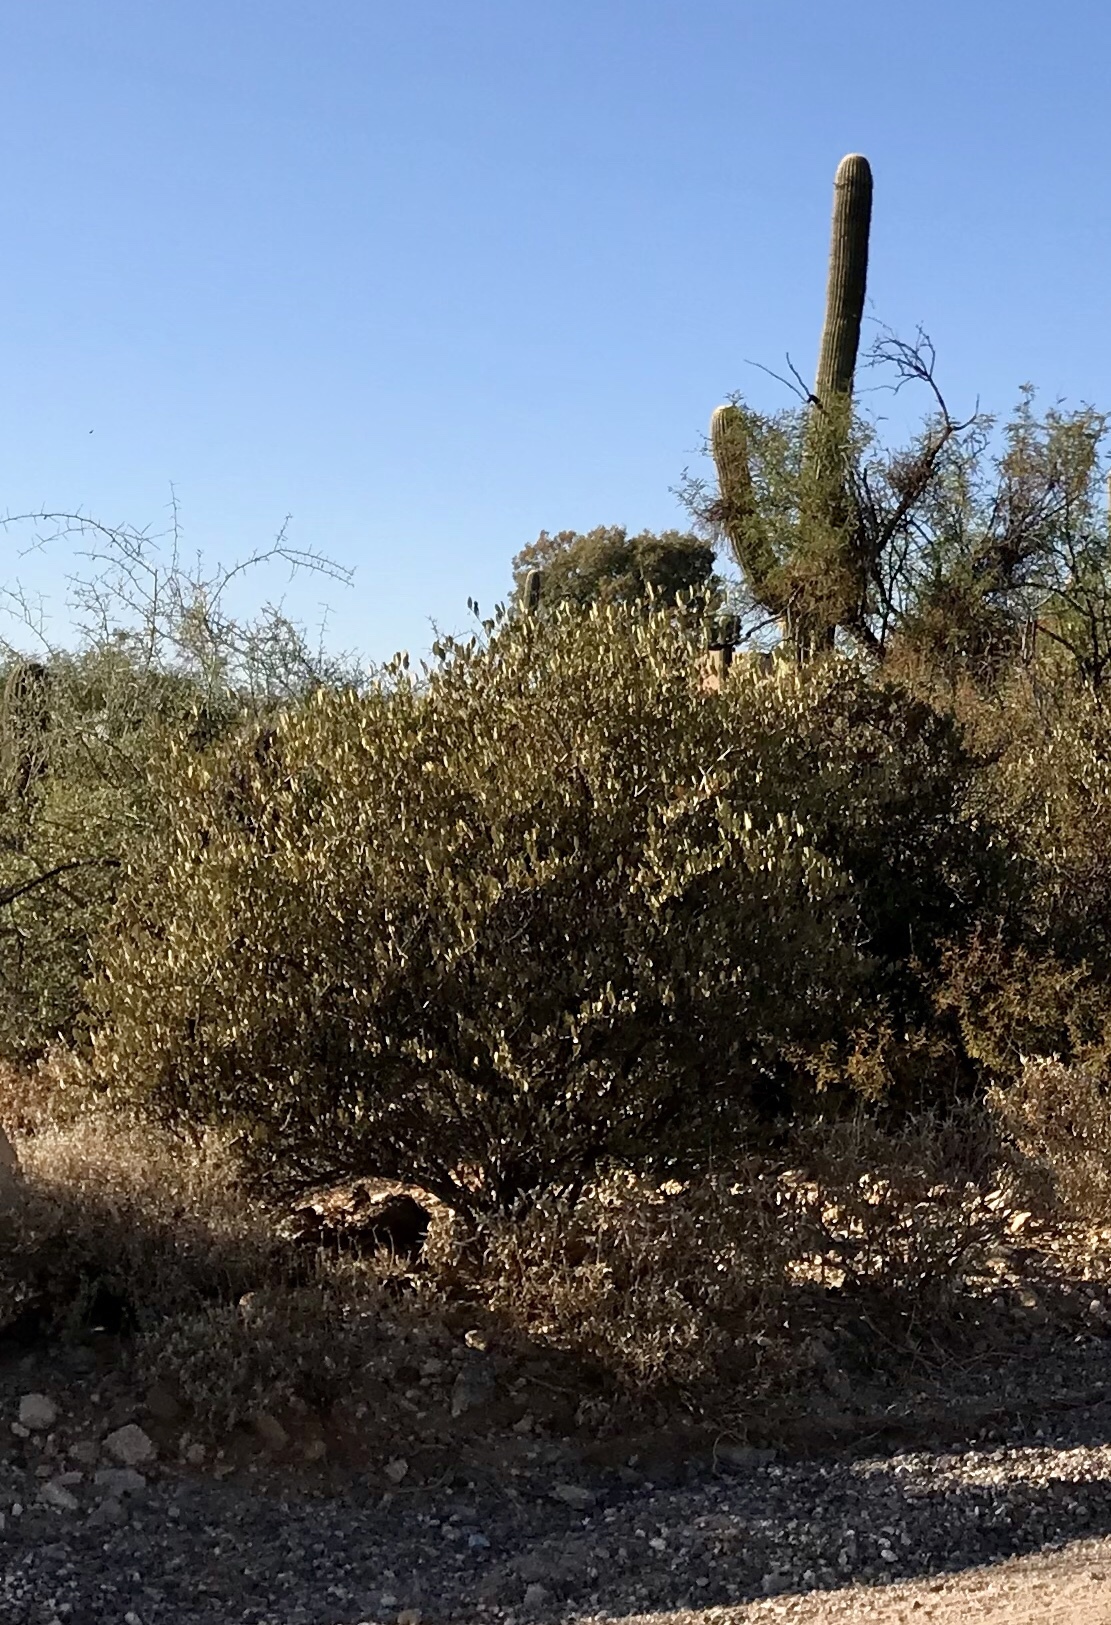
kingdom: Plantae
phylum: Tracheophyta
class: Magnoliopsida
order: Caryophyllales
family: Simmondsiaceae
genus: Simmondsia
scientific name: Simmondsia chinensis
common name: Jojoba
